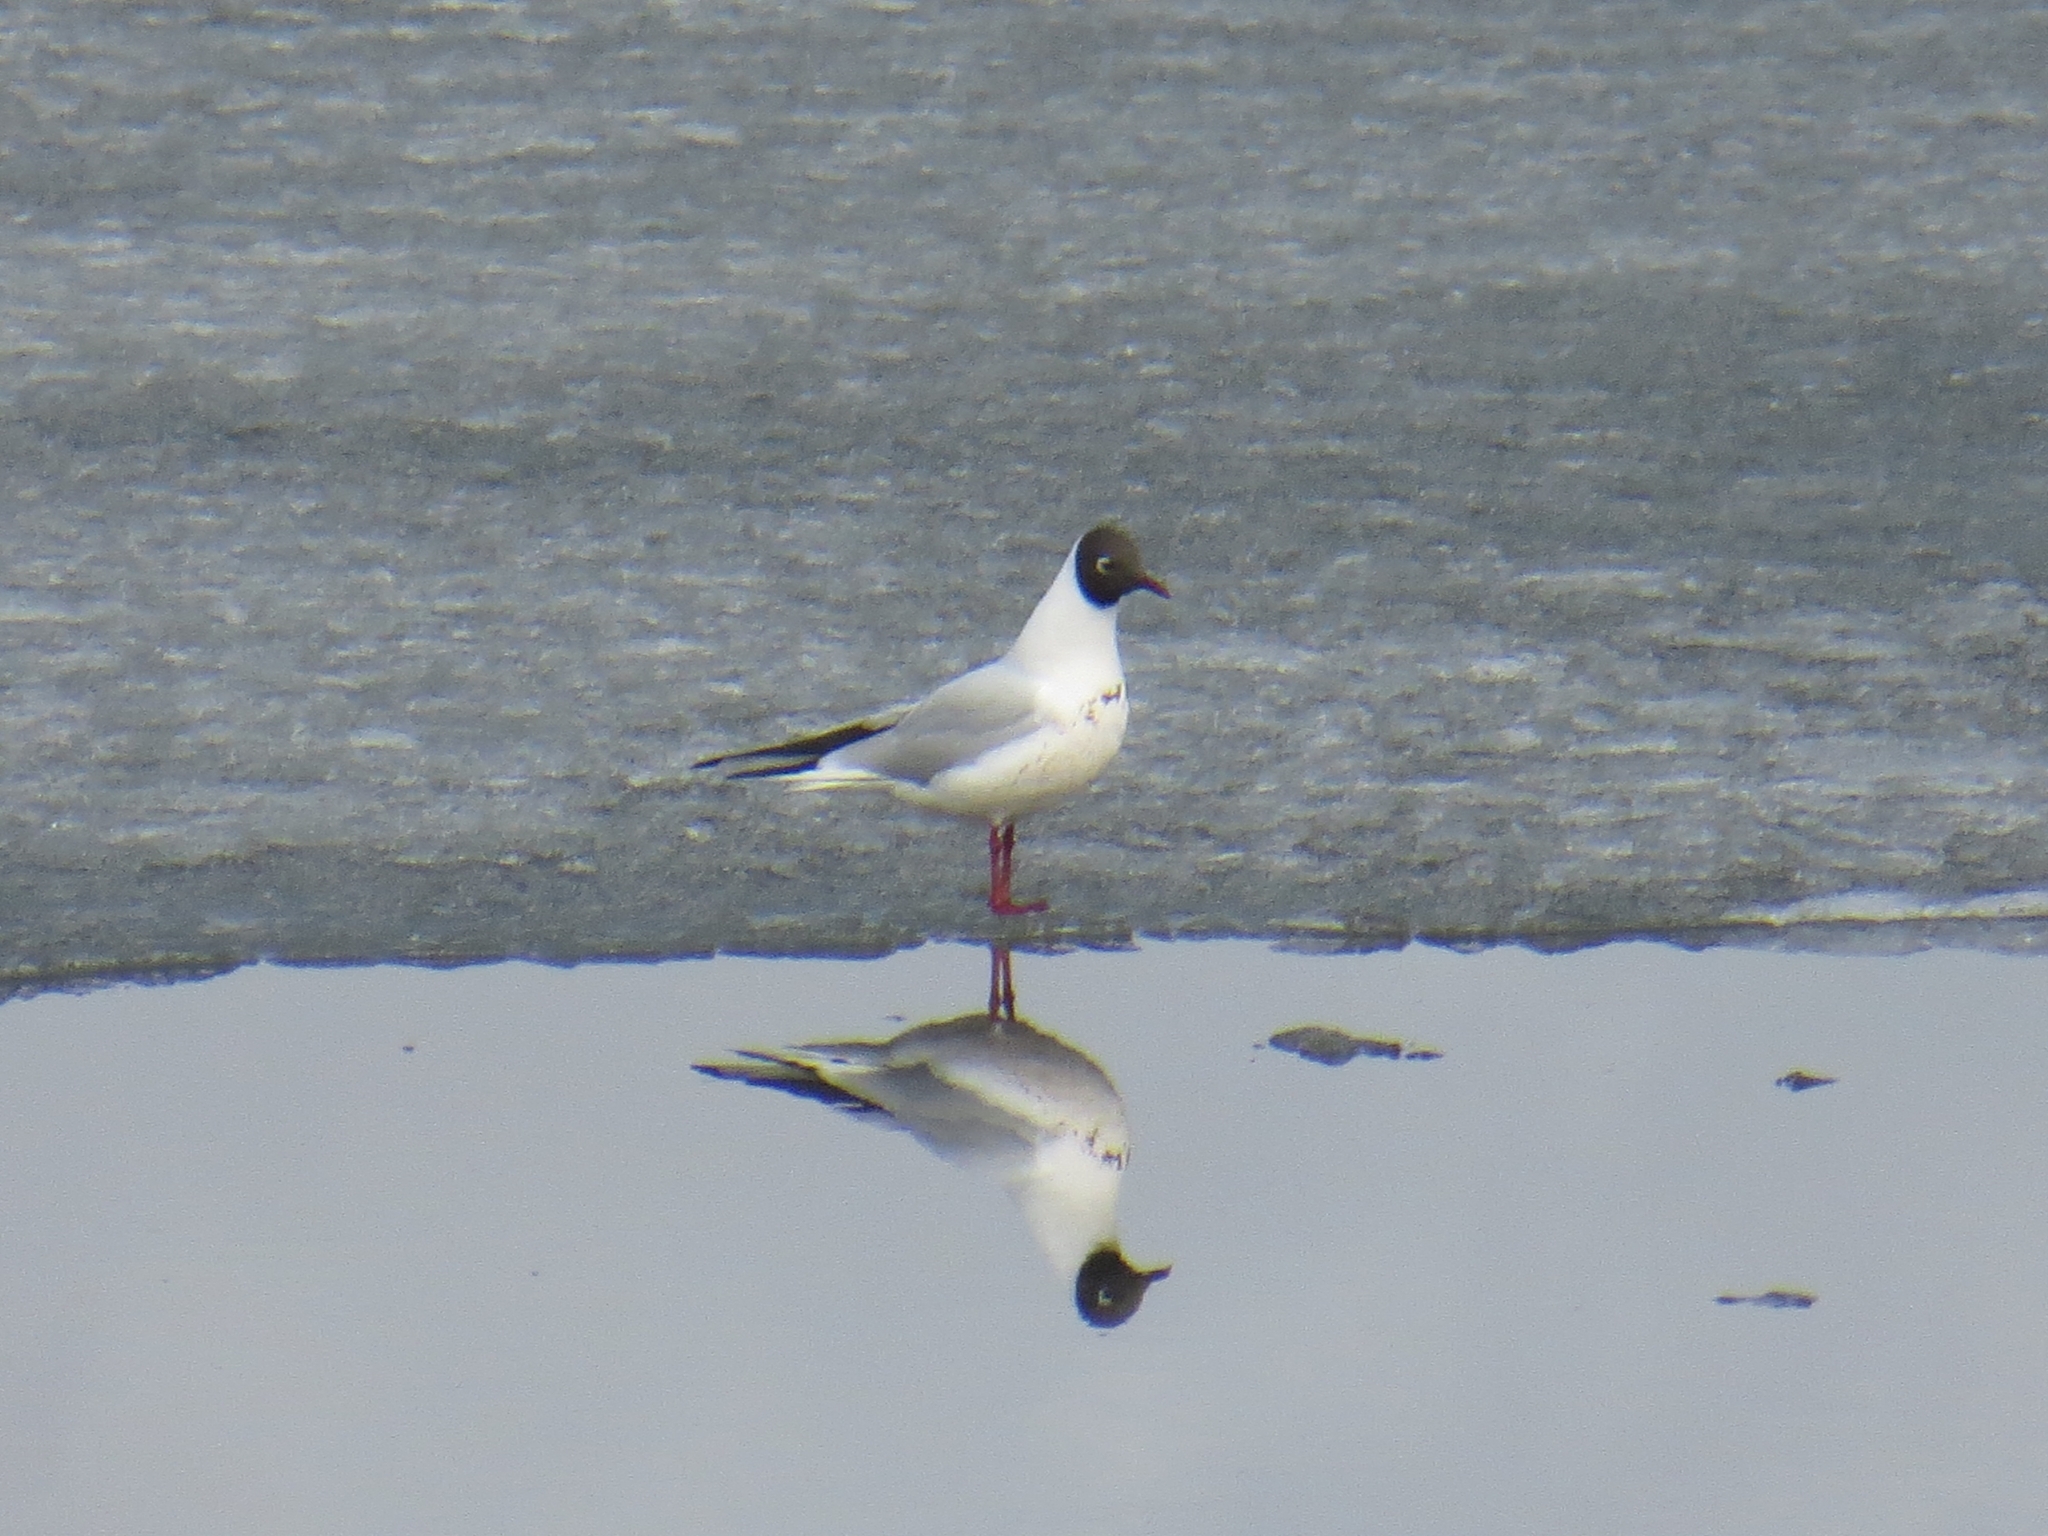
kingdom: Animalia
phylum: Chordata
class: Aves
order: Charadriiformes
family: Laridae
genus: Chroicocephalus
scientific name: Chroicocephalus ridibundus
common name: Black-headed gull
